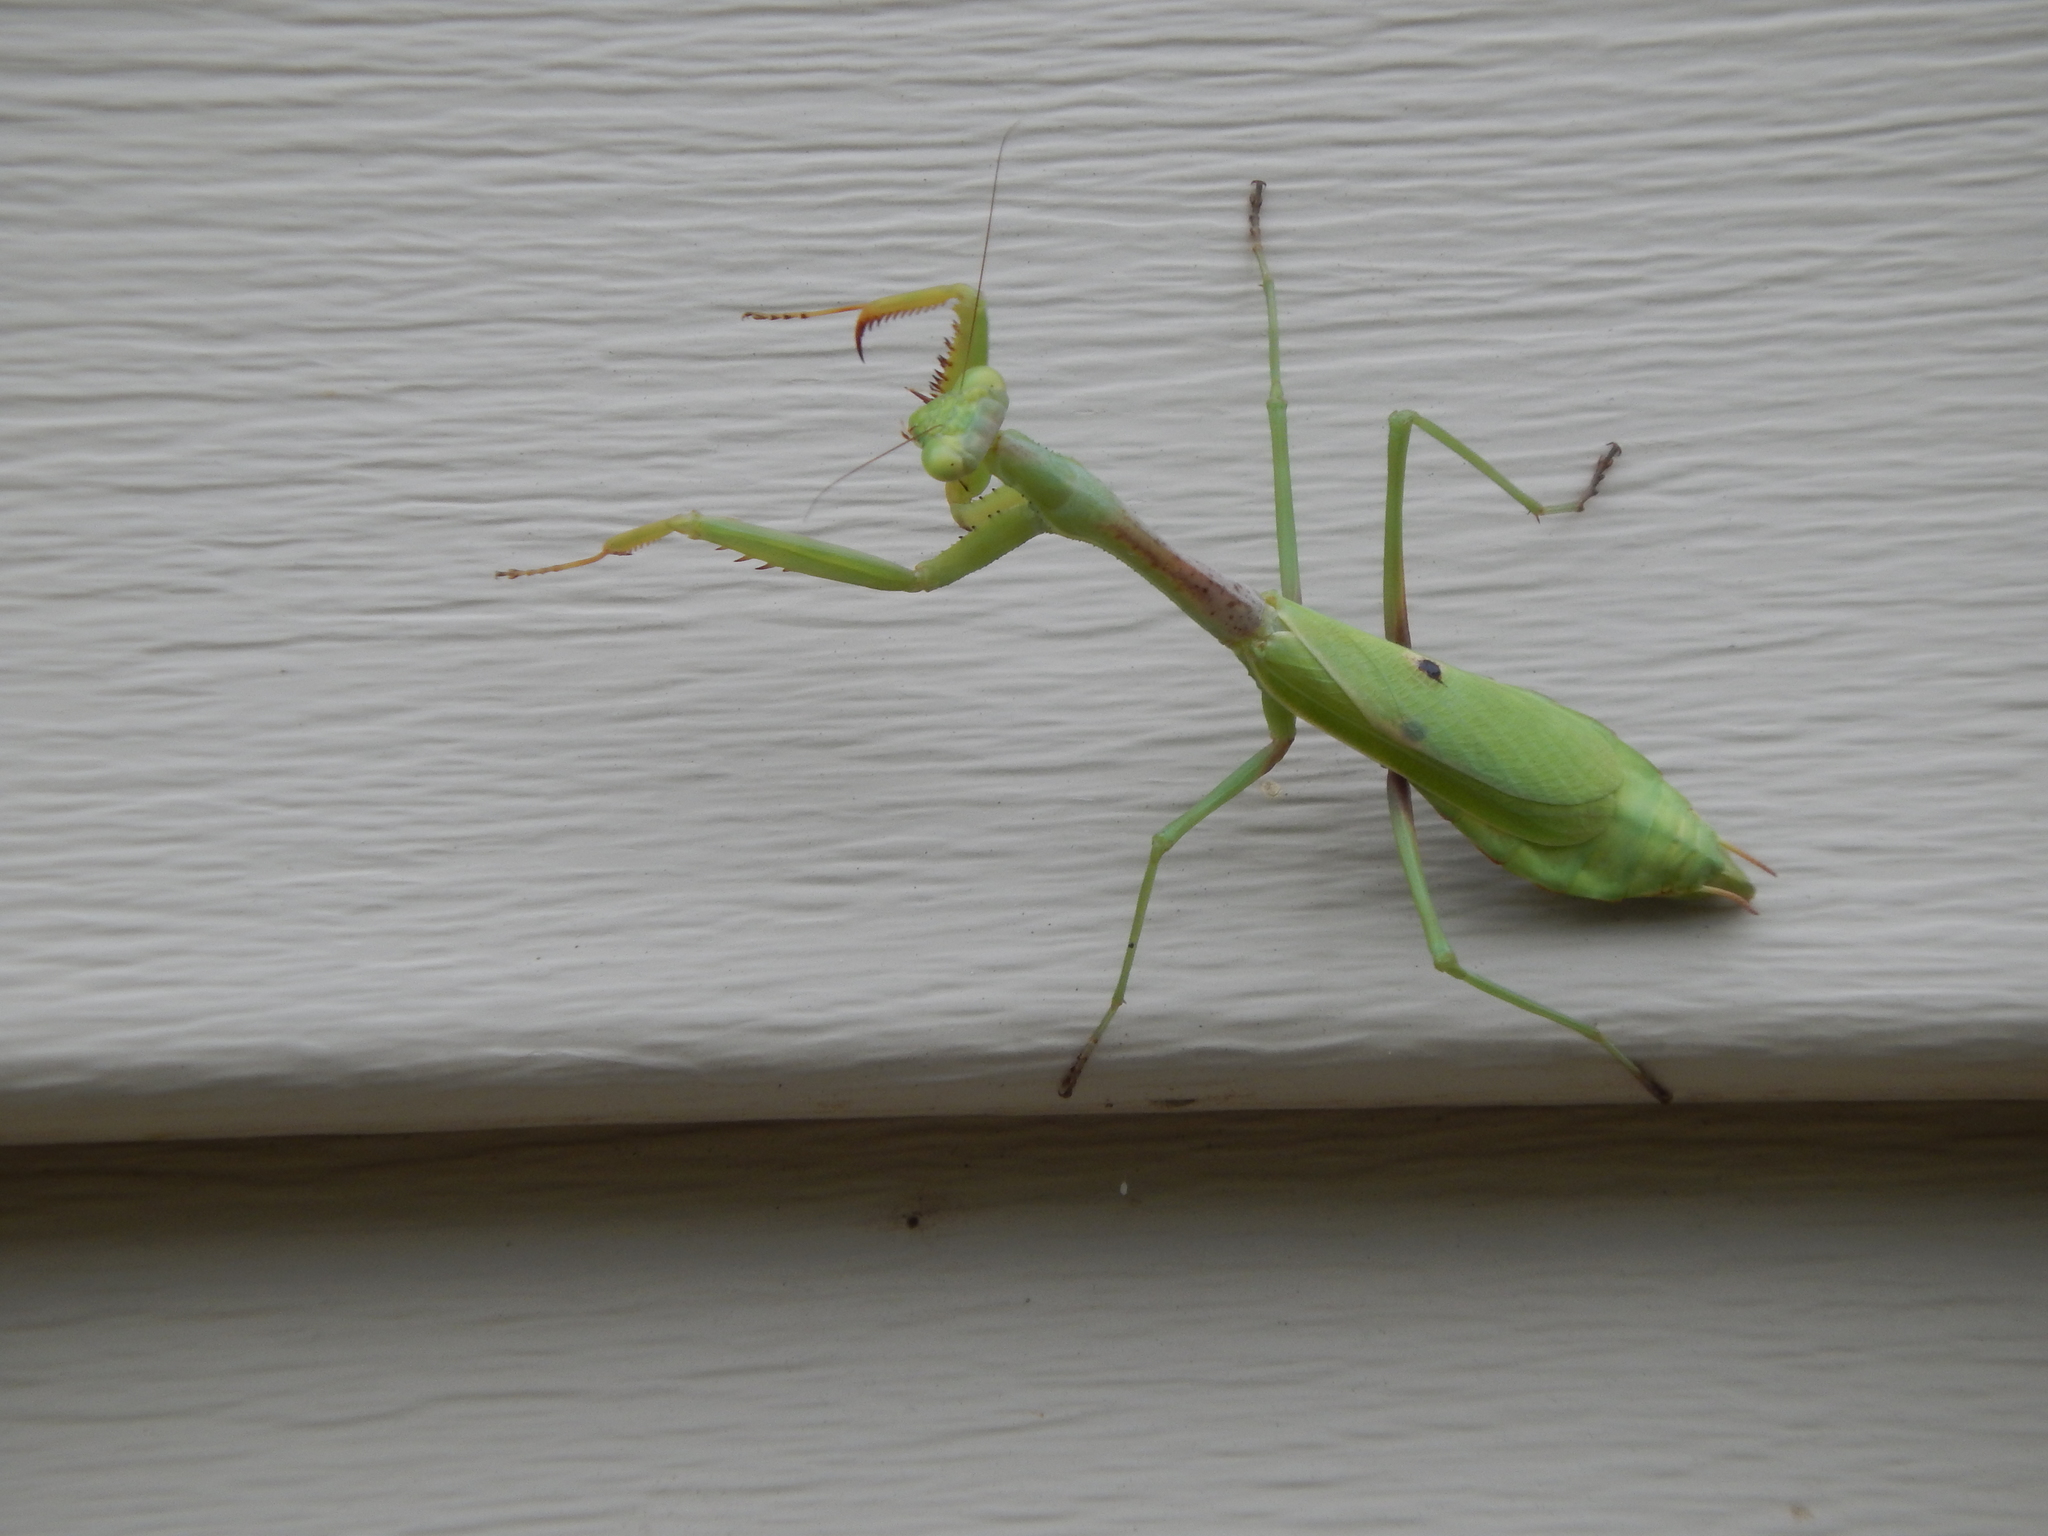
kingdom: Animalia
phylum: Arthropoda
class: Insecta
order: Mantodea
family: Mantidae
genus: Stagmomantis
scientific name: Stagmomantis carolina
